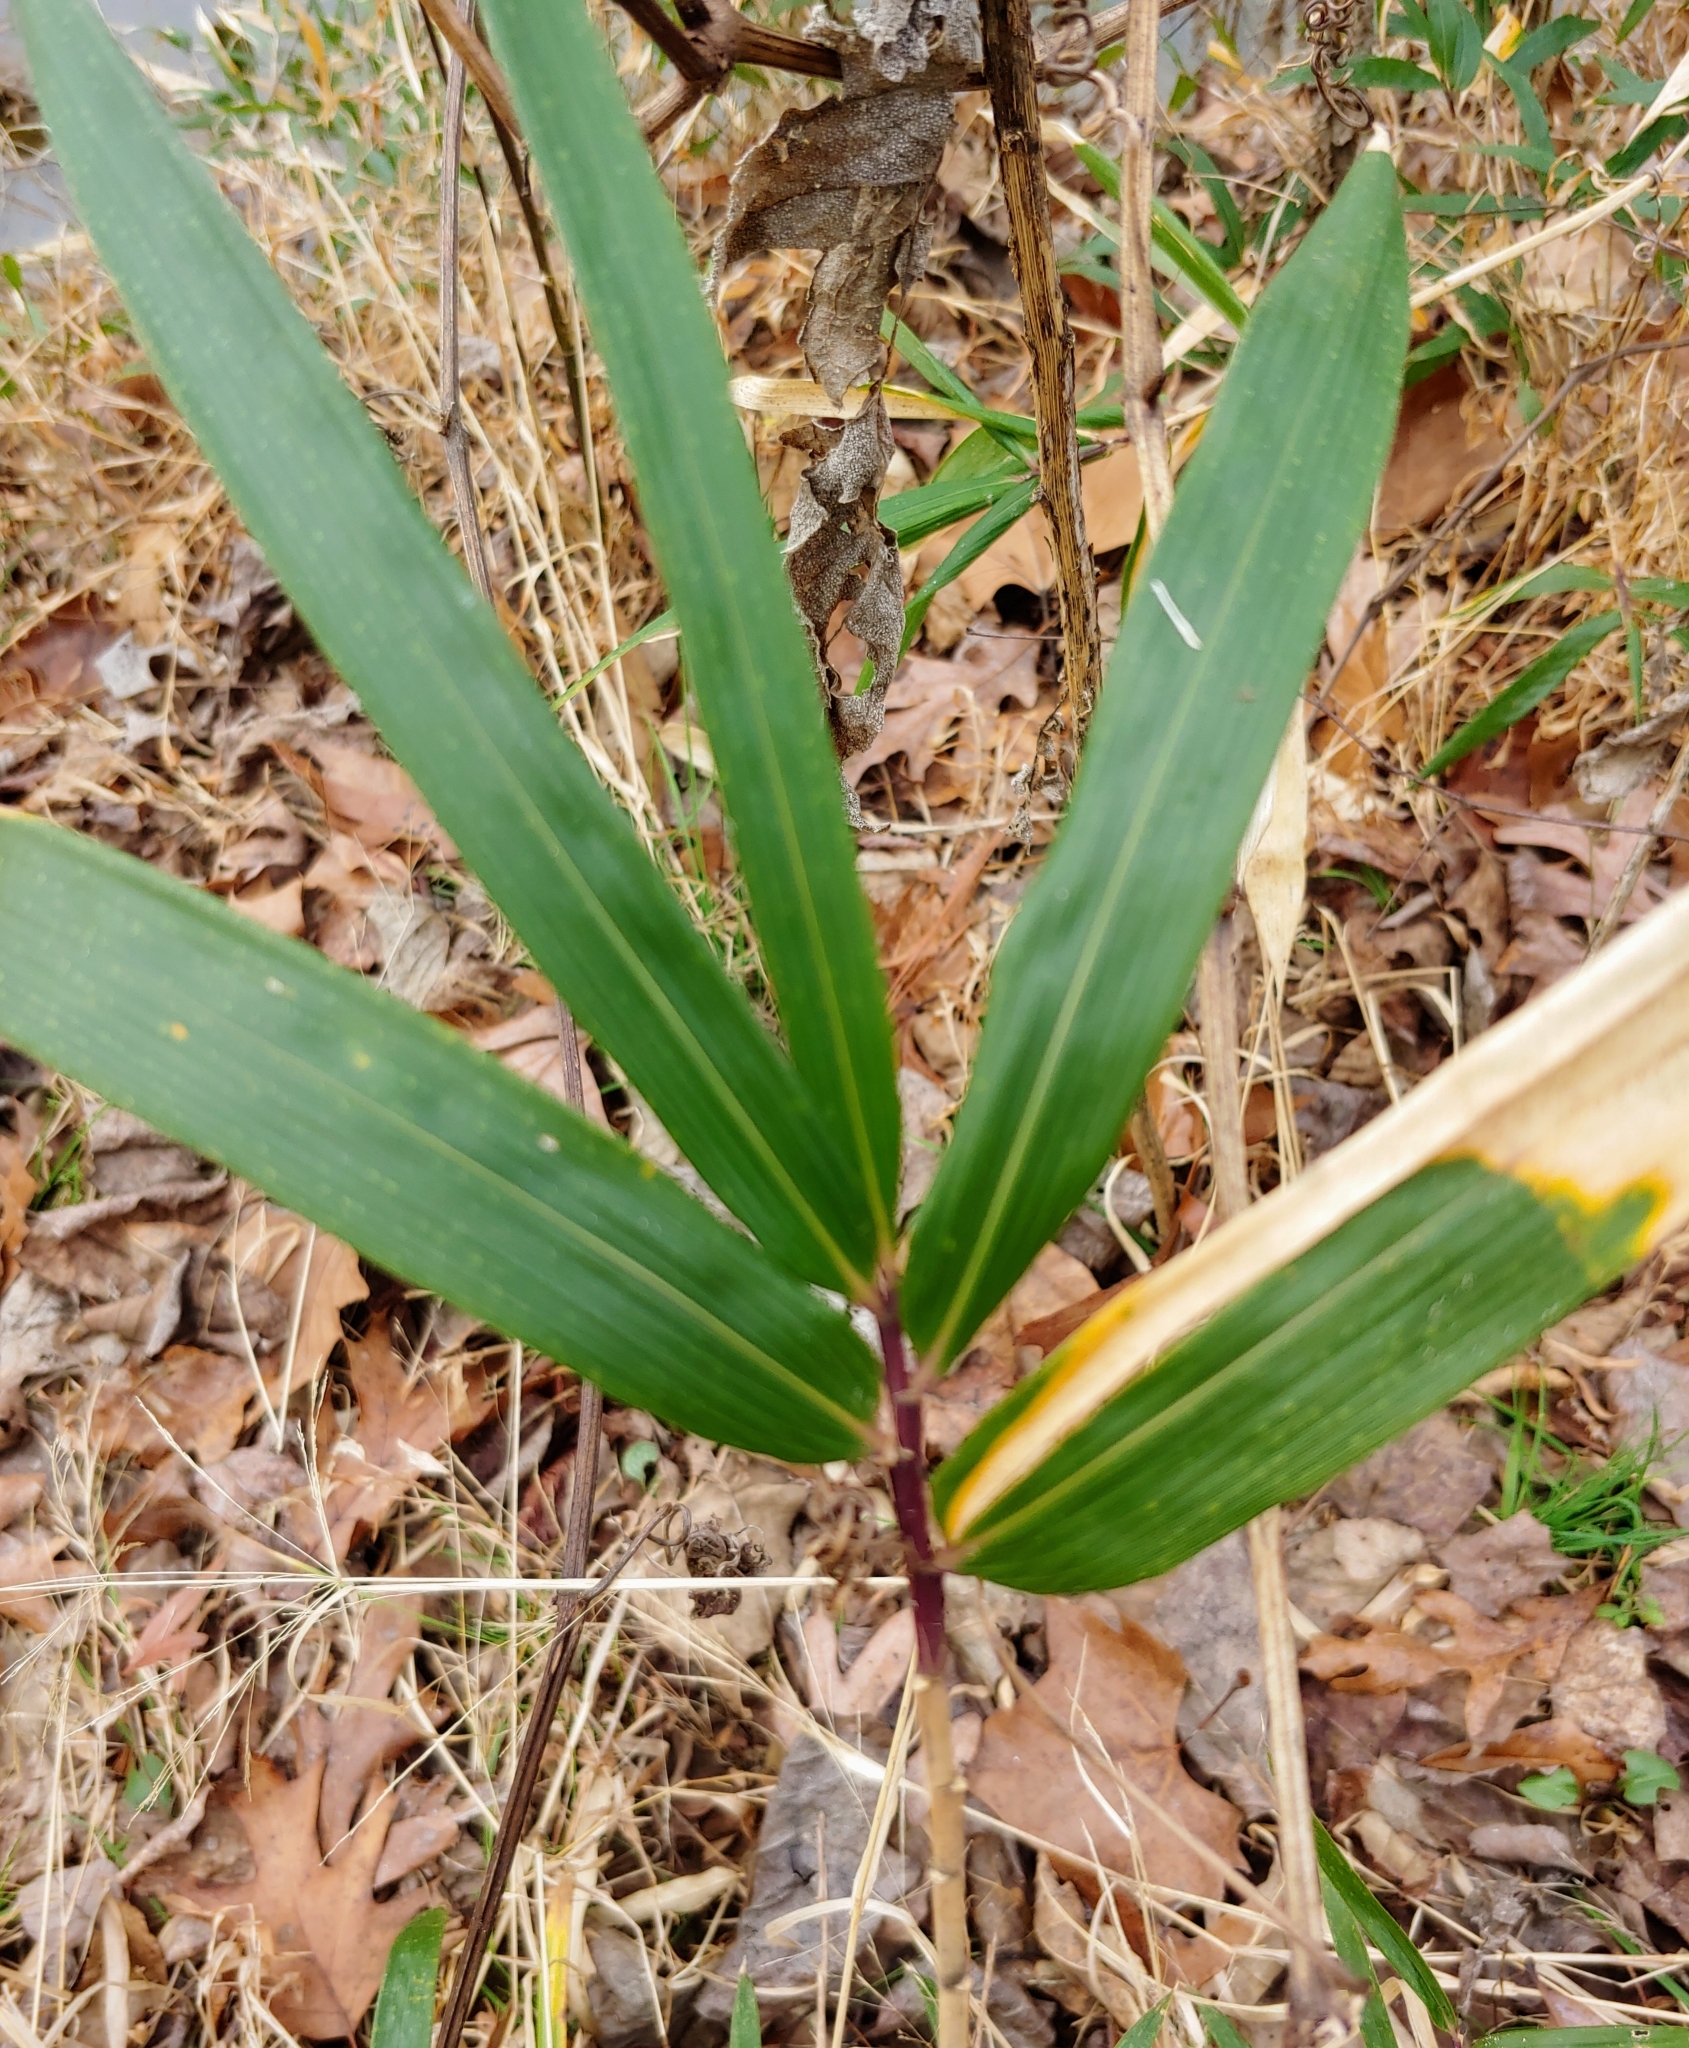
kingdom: Plantae
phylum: Tracheophyta
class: Liliopsida
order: Poales
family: Poaceae
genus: Arundinaria
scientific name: Arundinaria gigantea
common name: Giant cane
